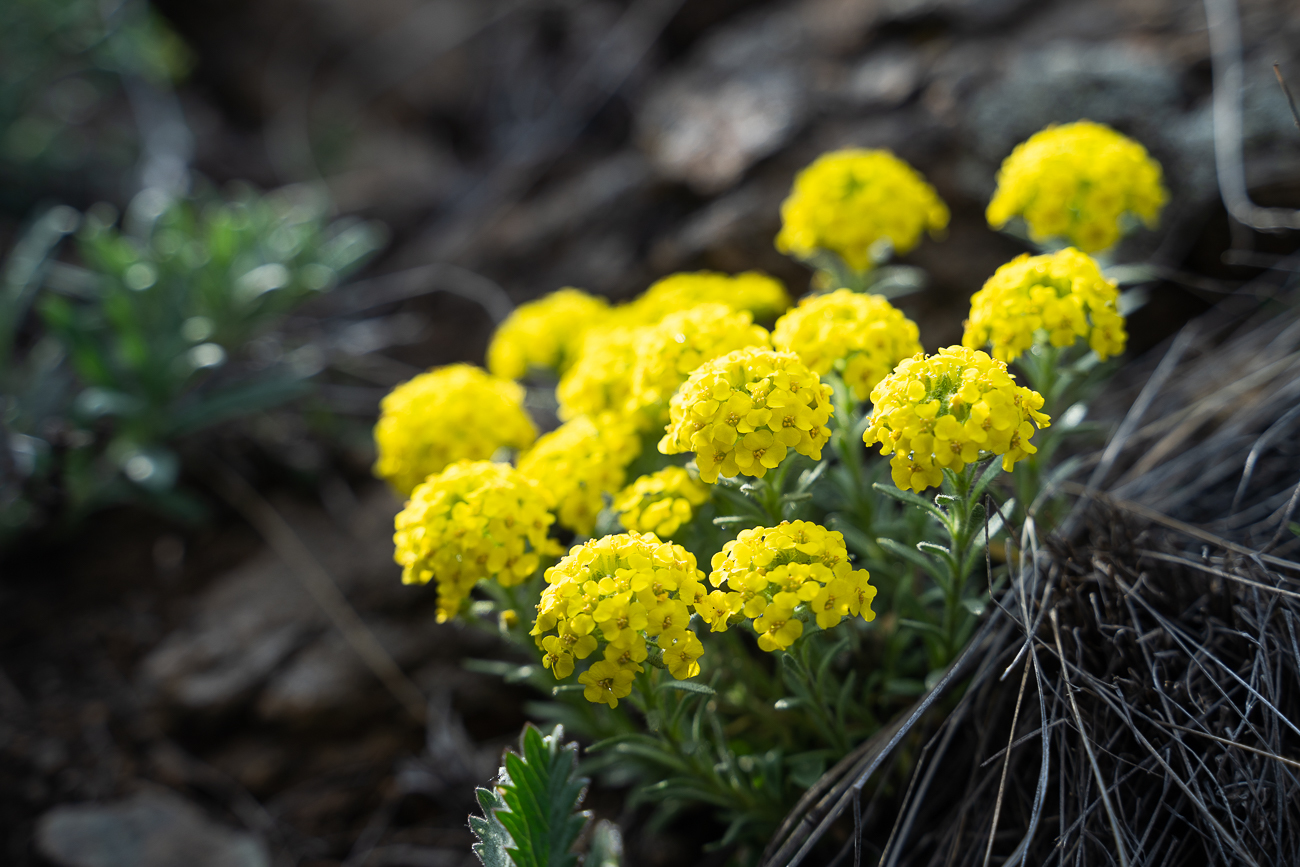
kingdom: Plantae
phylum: Tracheophyta
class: Magnoliopsida
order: Brassicales
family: Brassicaceae
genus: Alyssum
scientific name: Alyssum lenense
